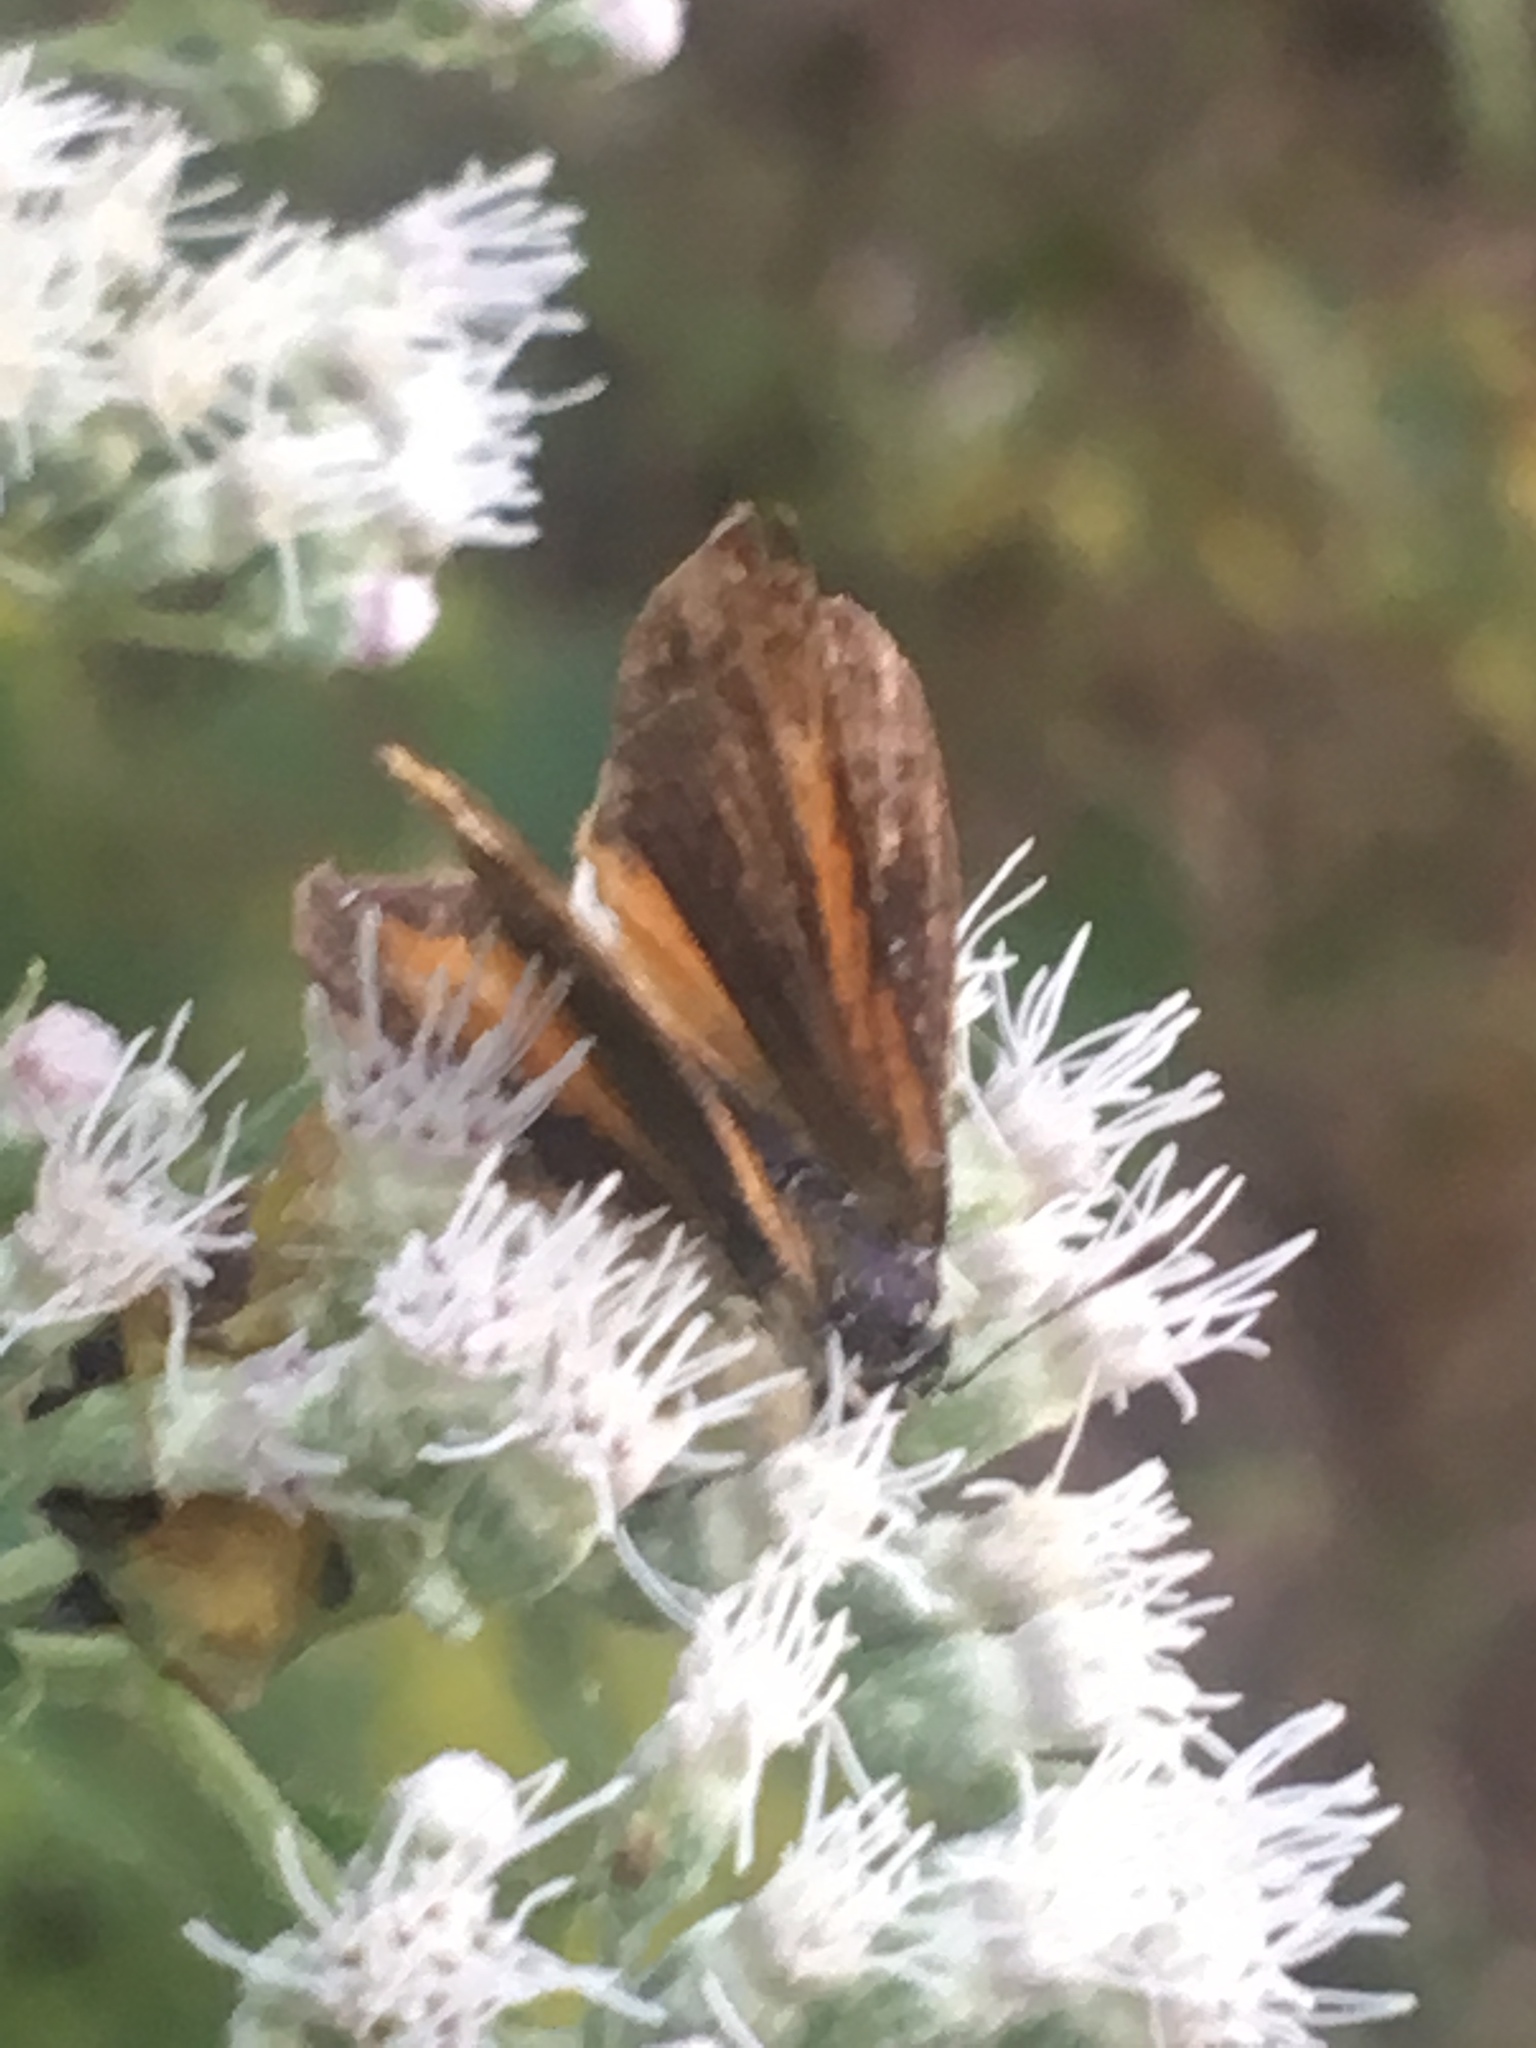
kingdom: Animalia
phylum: Arthropoda
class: Insecta
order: Lepidoptera
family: Hesperiidae
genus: Ancyloxypha
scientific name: Ancyloxypha numitor
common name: Least skipper
